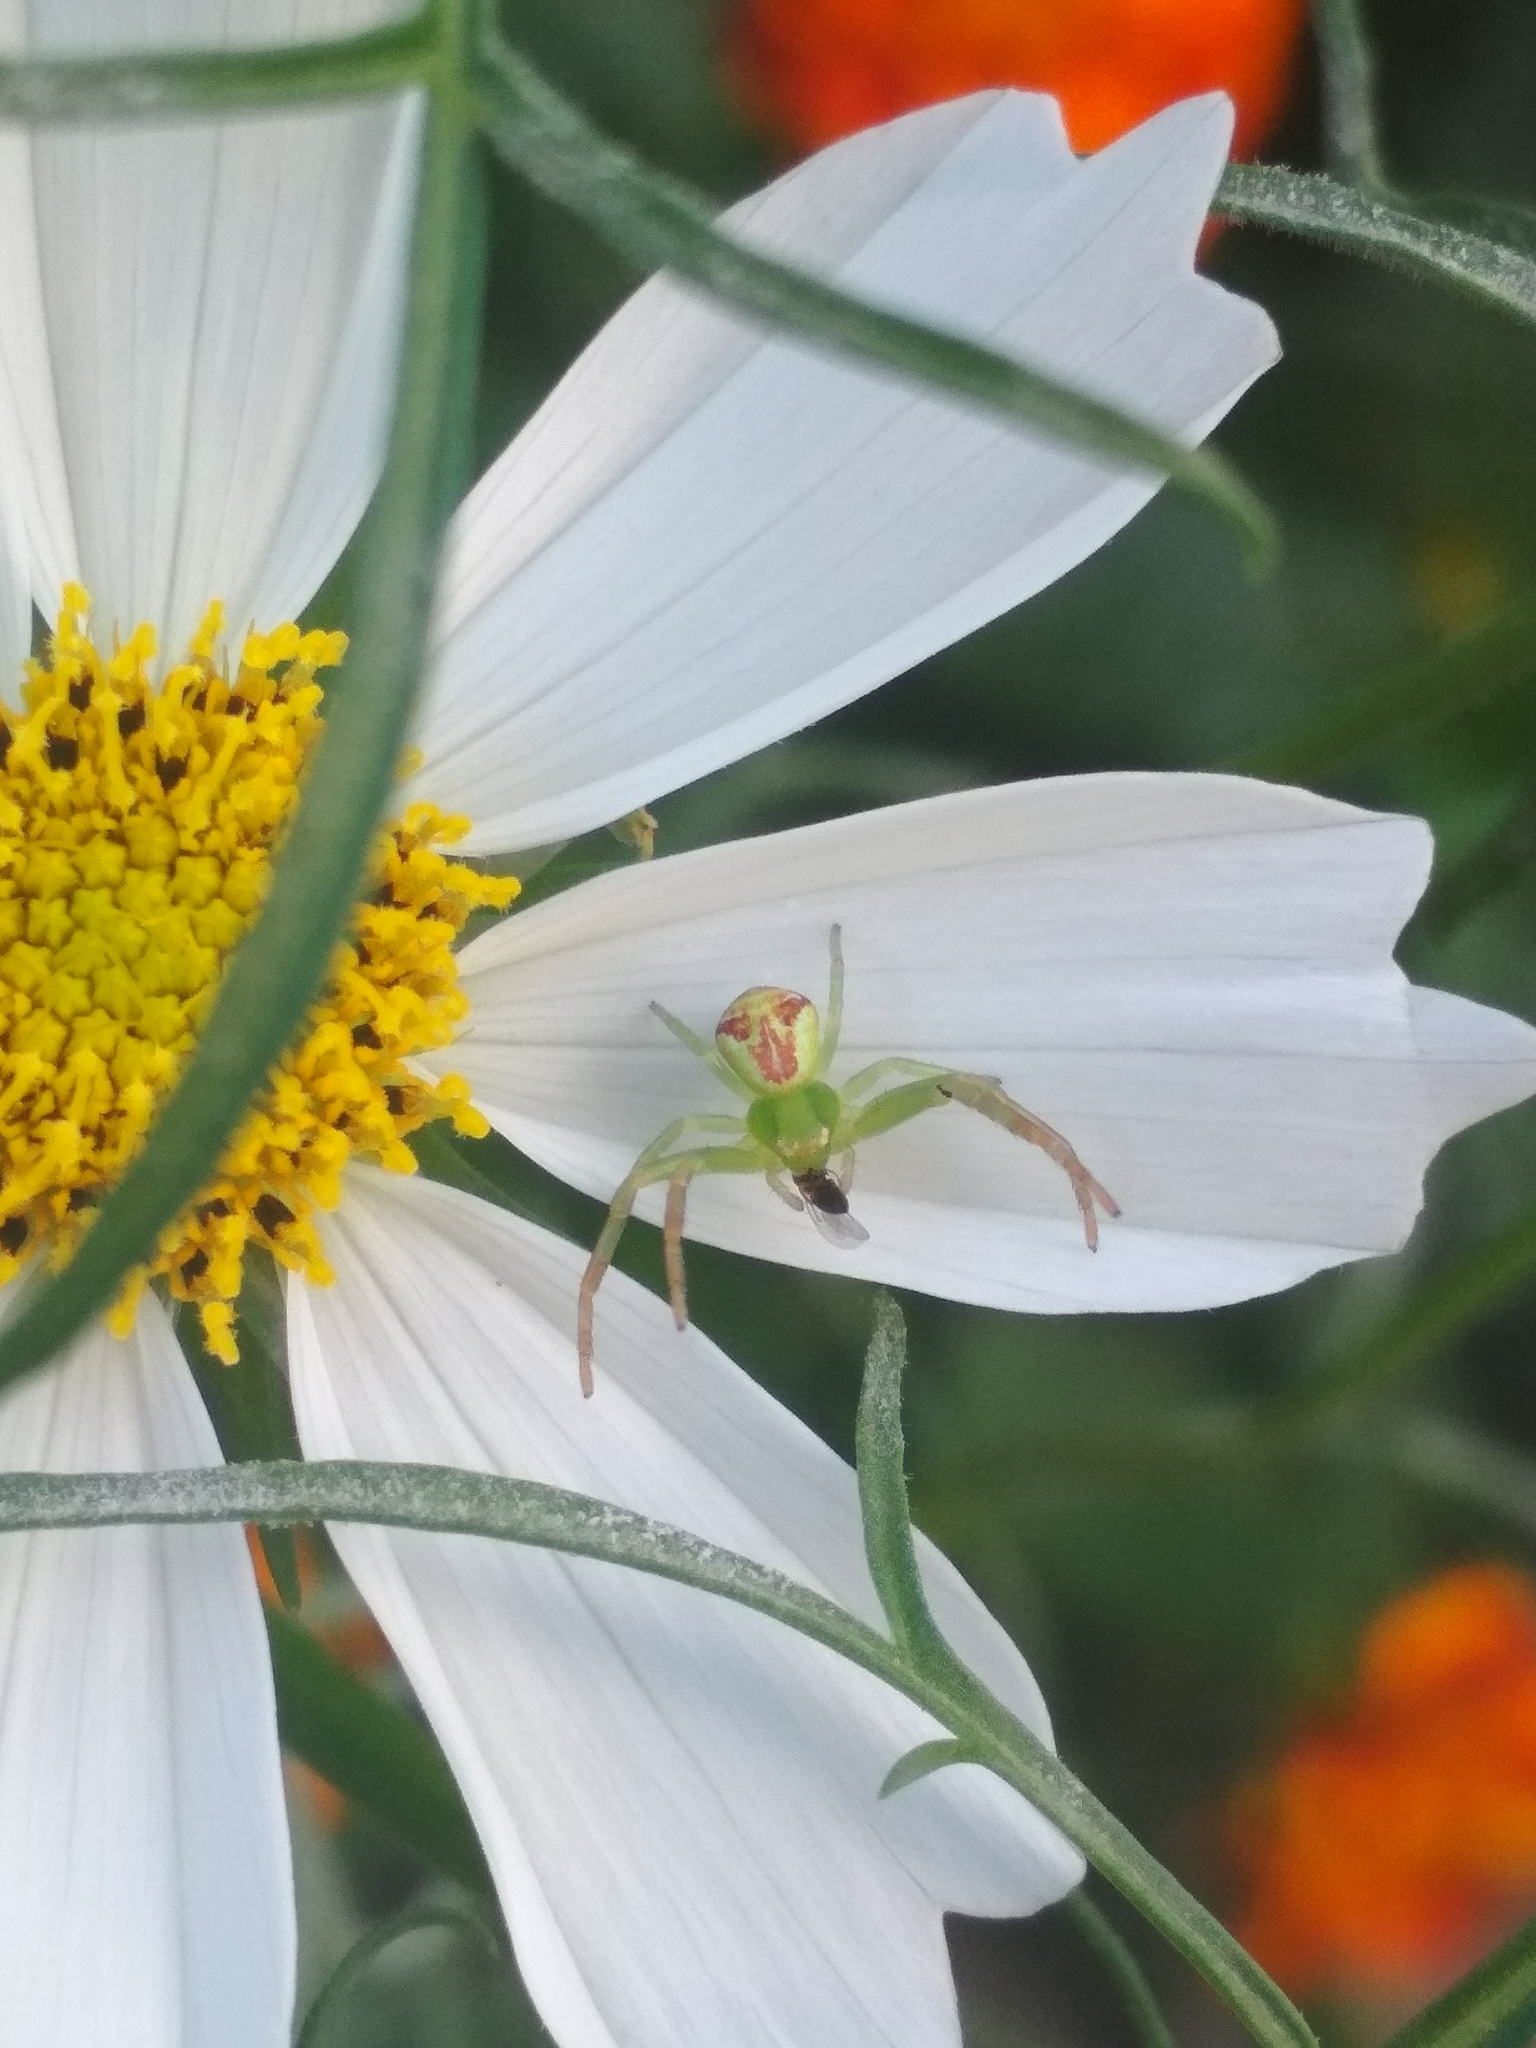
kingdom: Animalia
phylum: Arthropoda
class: Arachnida
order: Araneae
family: Thomisidae
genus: Ebrechtella
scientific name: Ebrechtella tricuspidata
